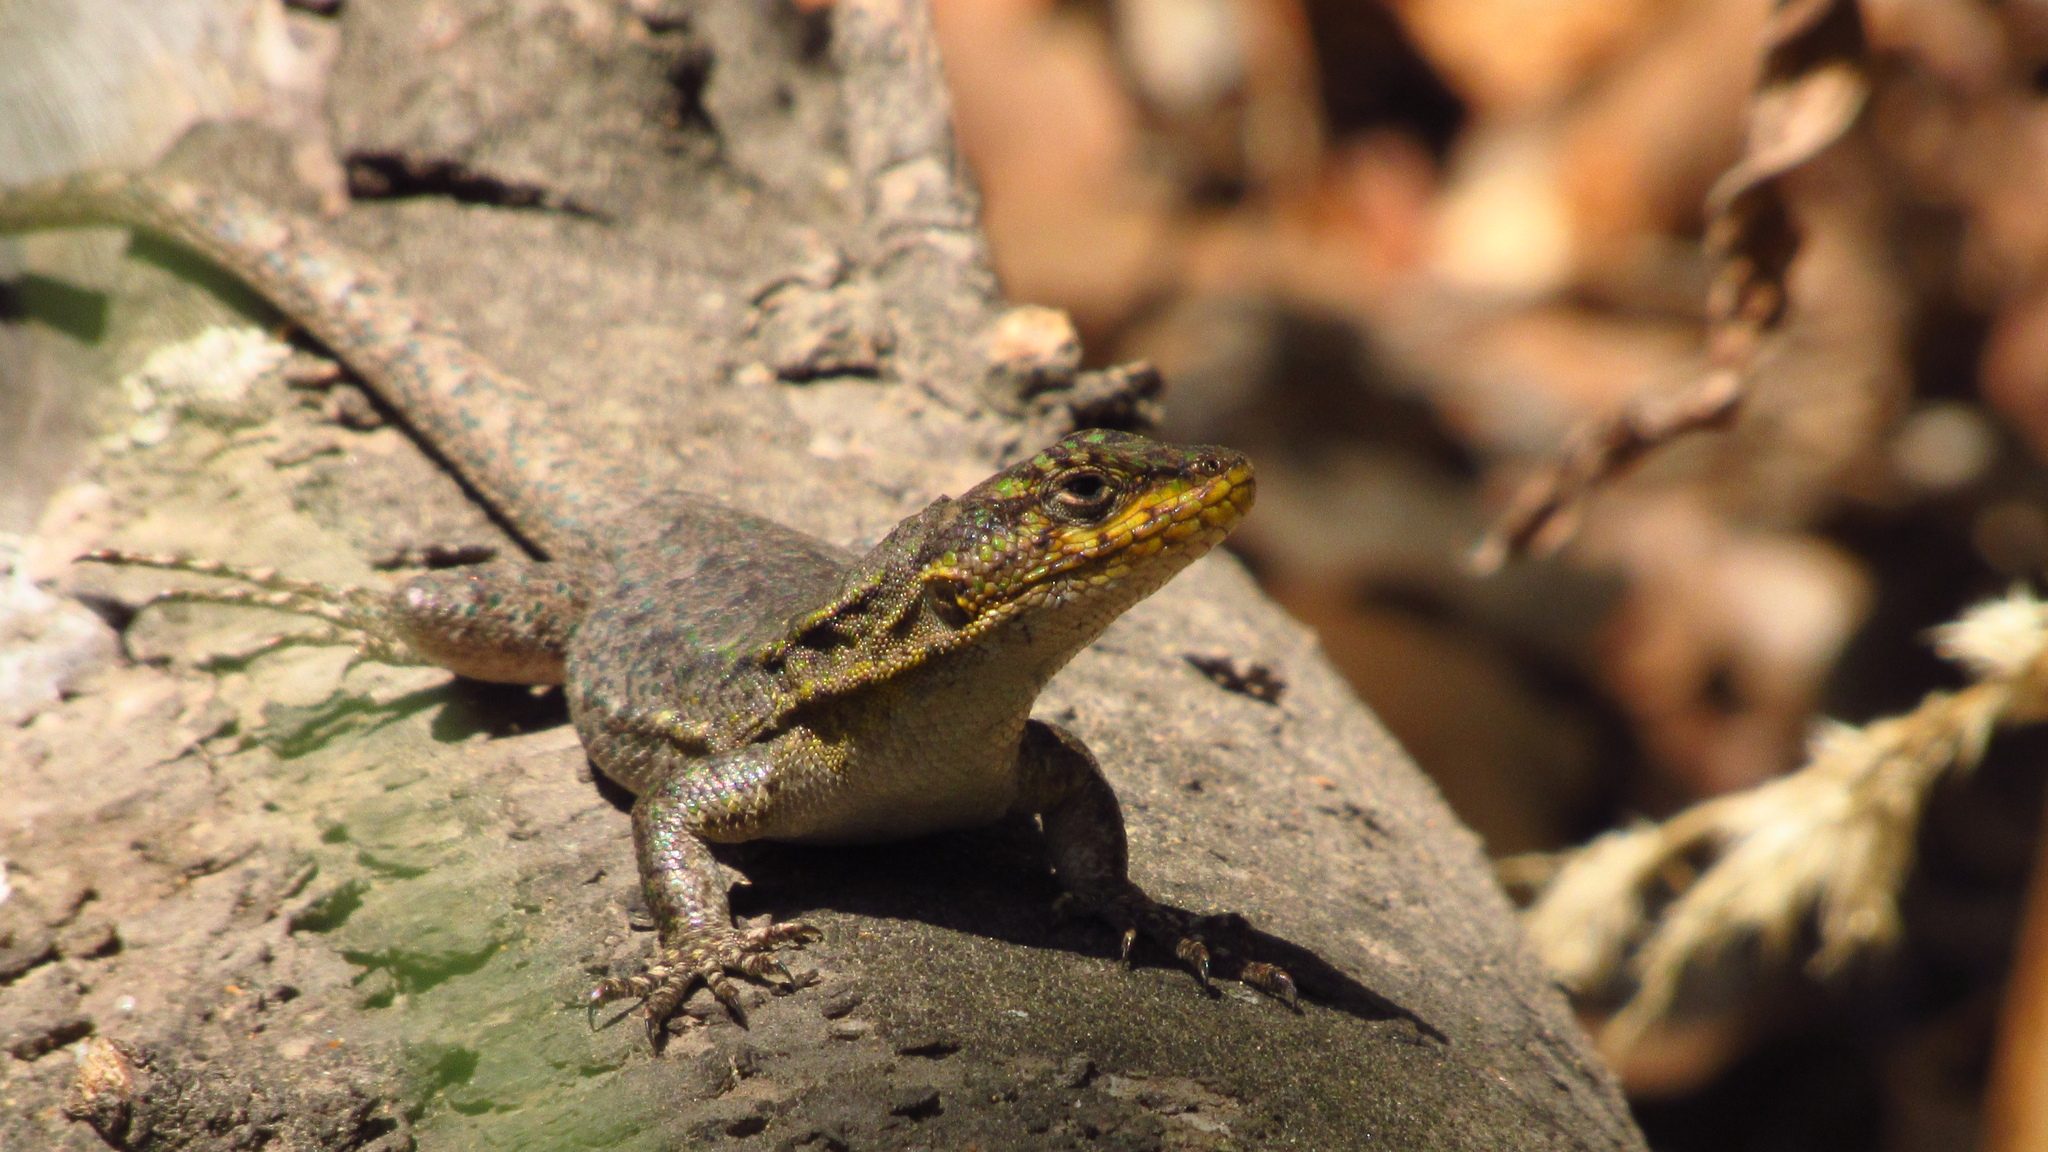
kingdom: Animalia
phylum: Chordata
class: Squamata
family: Liolaemidae
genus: Liolaemus
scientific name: Liolaemus tenuis
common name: Thin tree iguana
